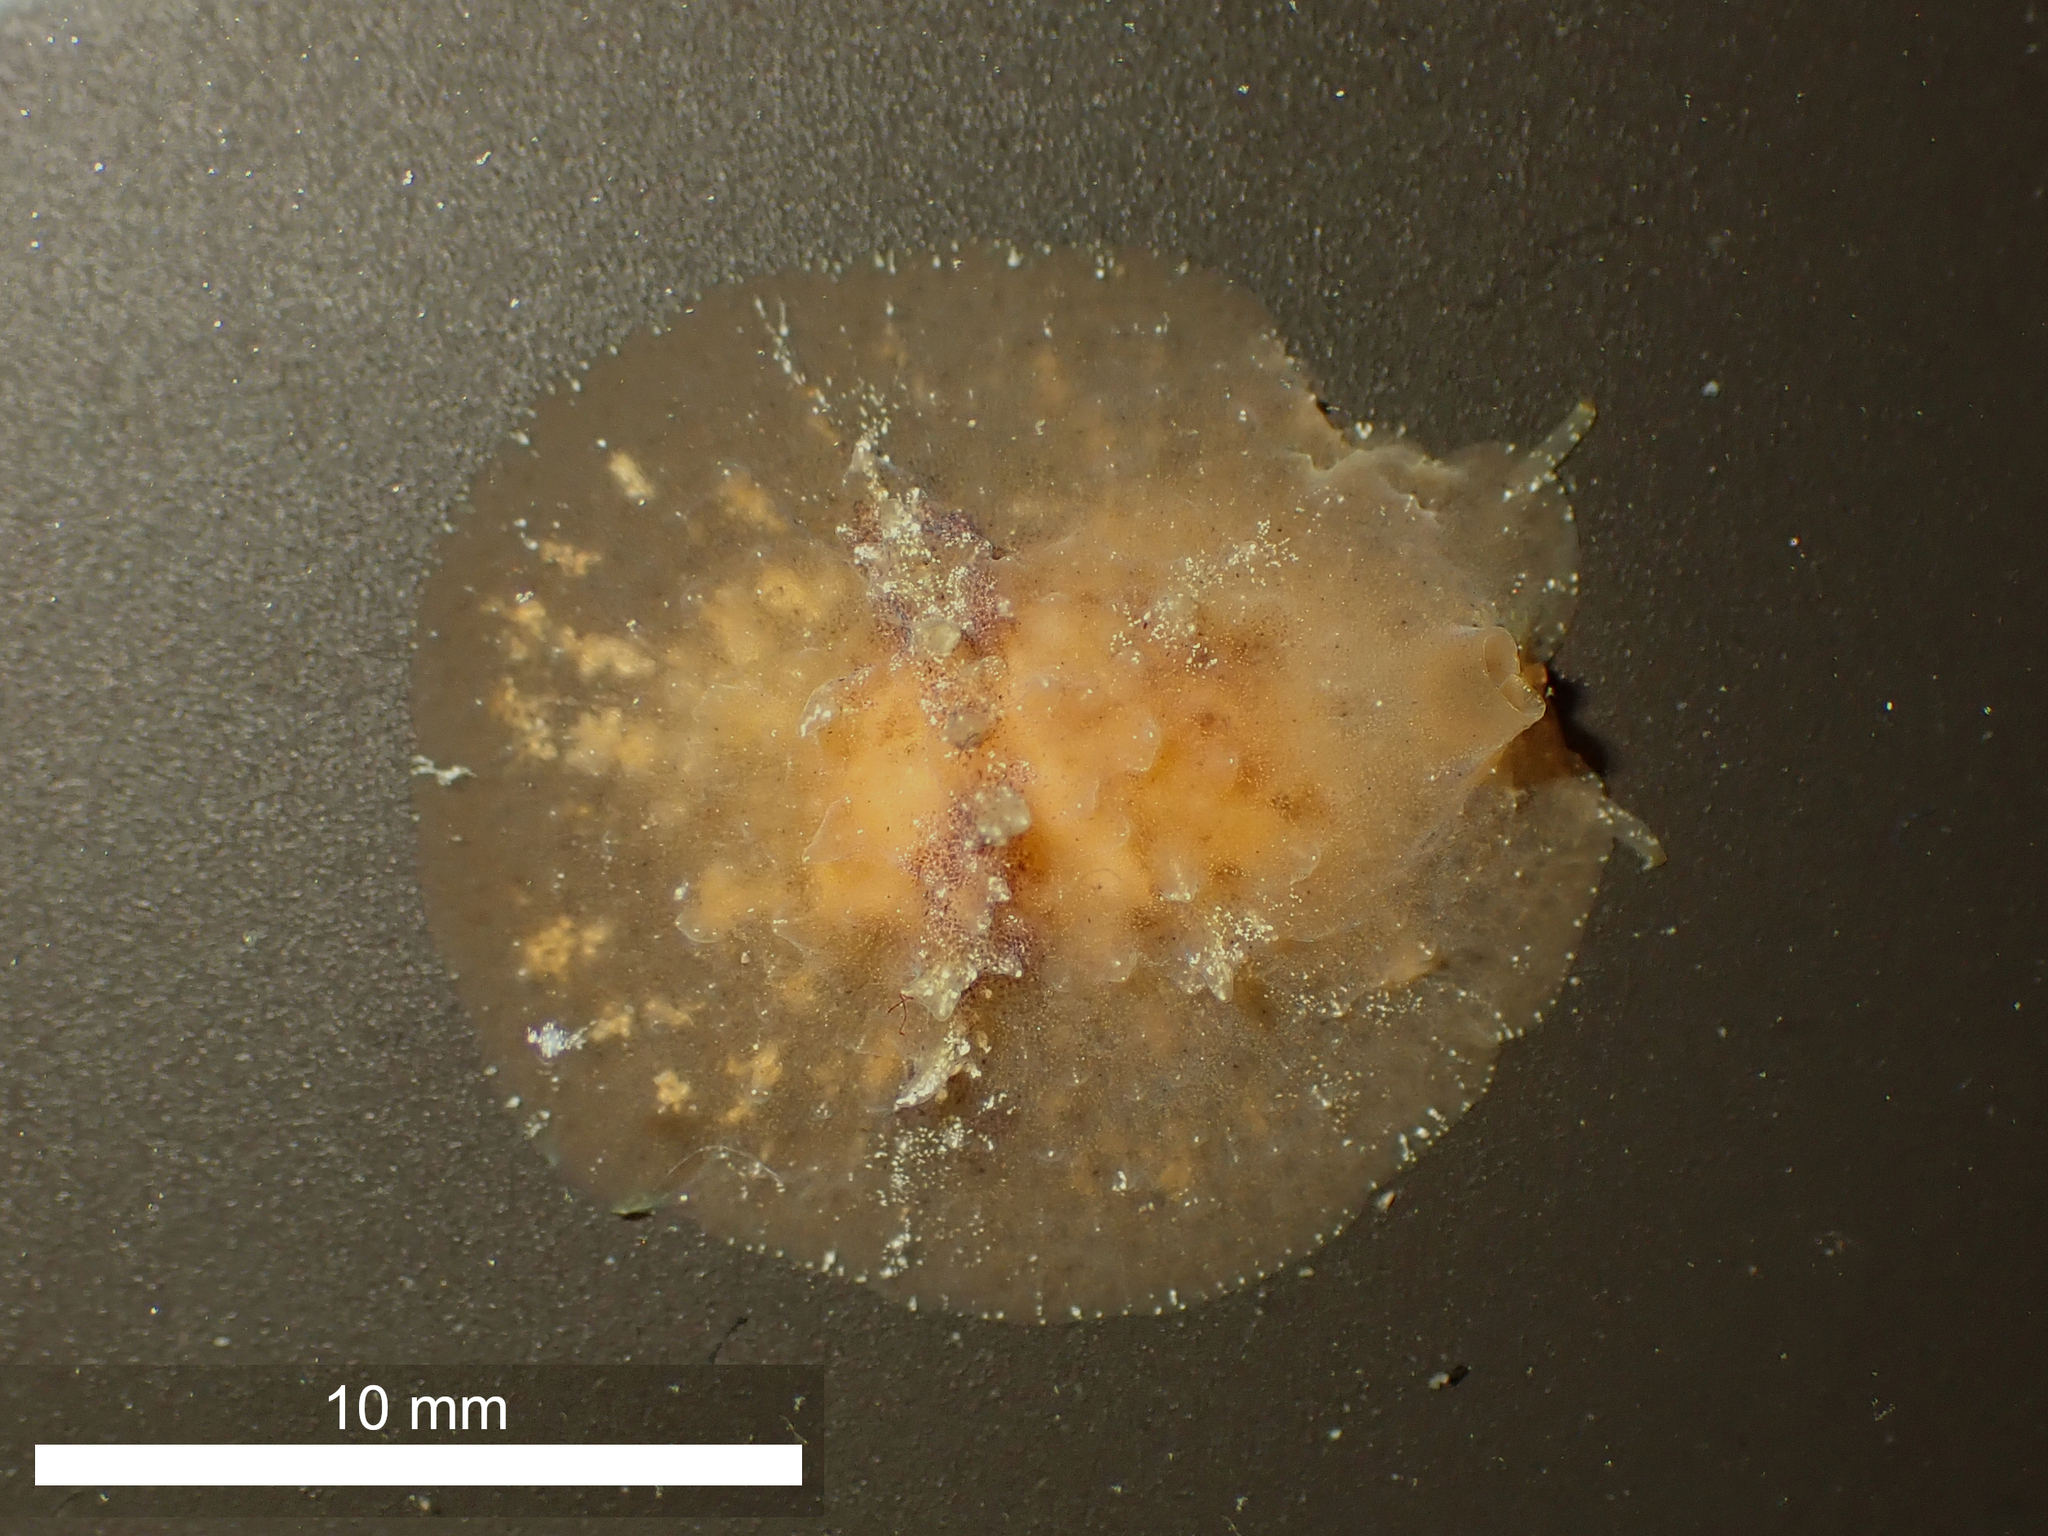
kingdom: Animalia
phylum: Mollusca
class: Gastropoda
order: Littorinimorpha
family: Velutinidae
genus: Lamellaria
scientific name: Lamellaria ophione
